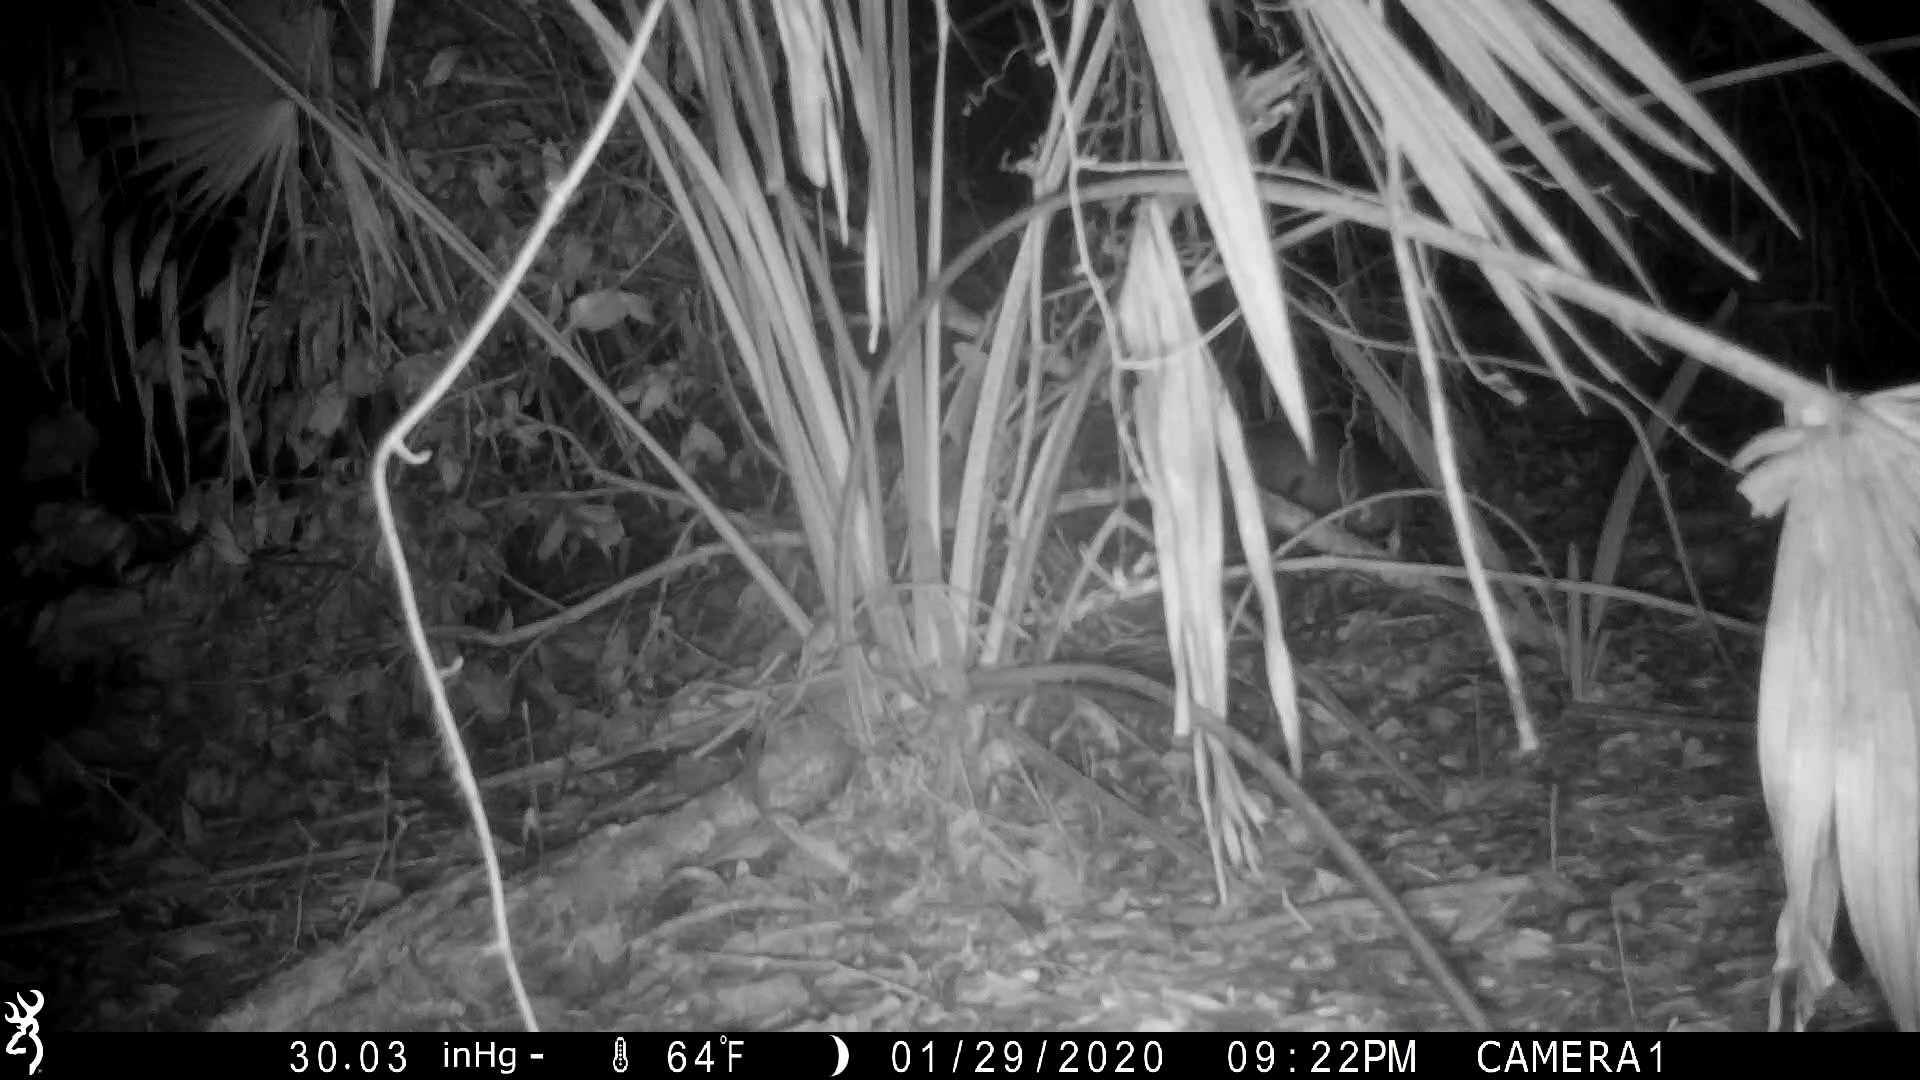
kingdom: Animalia
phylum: Chordata
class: Mammalia
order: Cingulata
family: Dasypodidae
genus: Dasypus
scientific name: Dasypus novemcinctus
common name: Nine-banded armadillo
